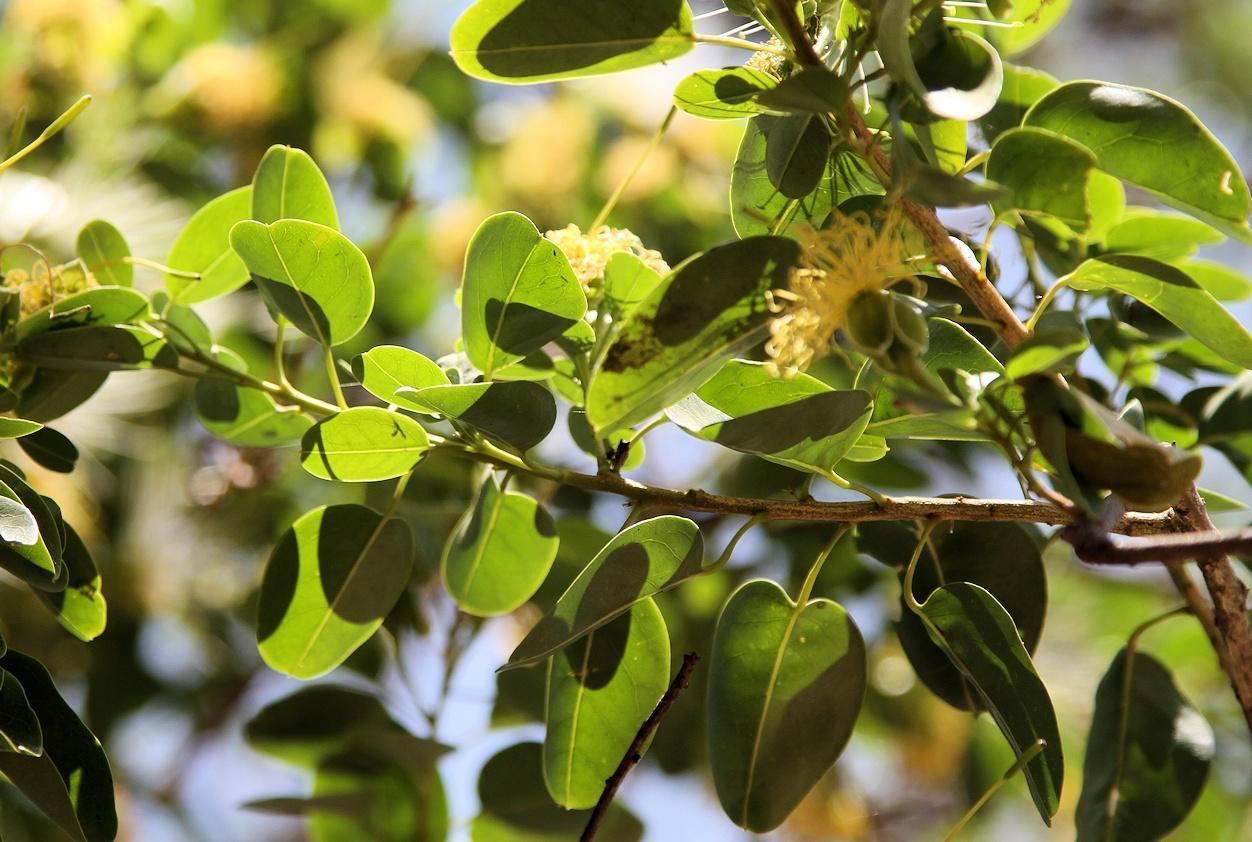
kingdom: Plantae
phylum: Tracheophyta
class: Magnoliopsida
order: Brassicales
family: Capparaceae
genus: Maerua
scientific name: Maerua angolensis
